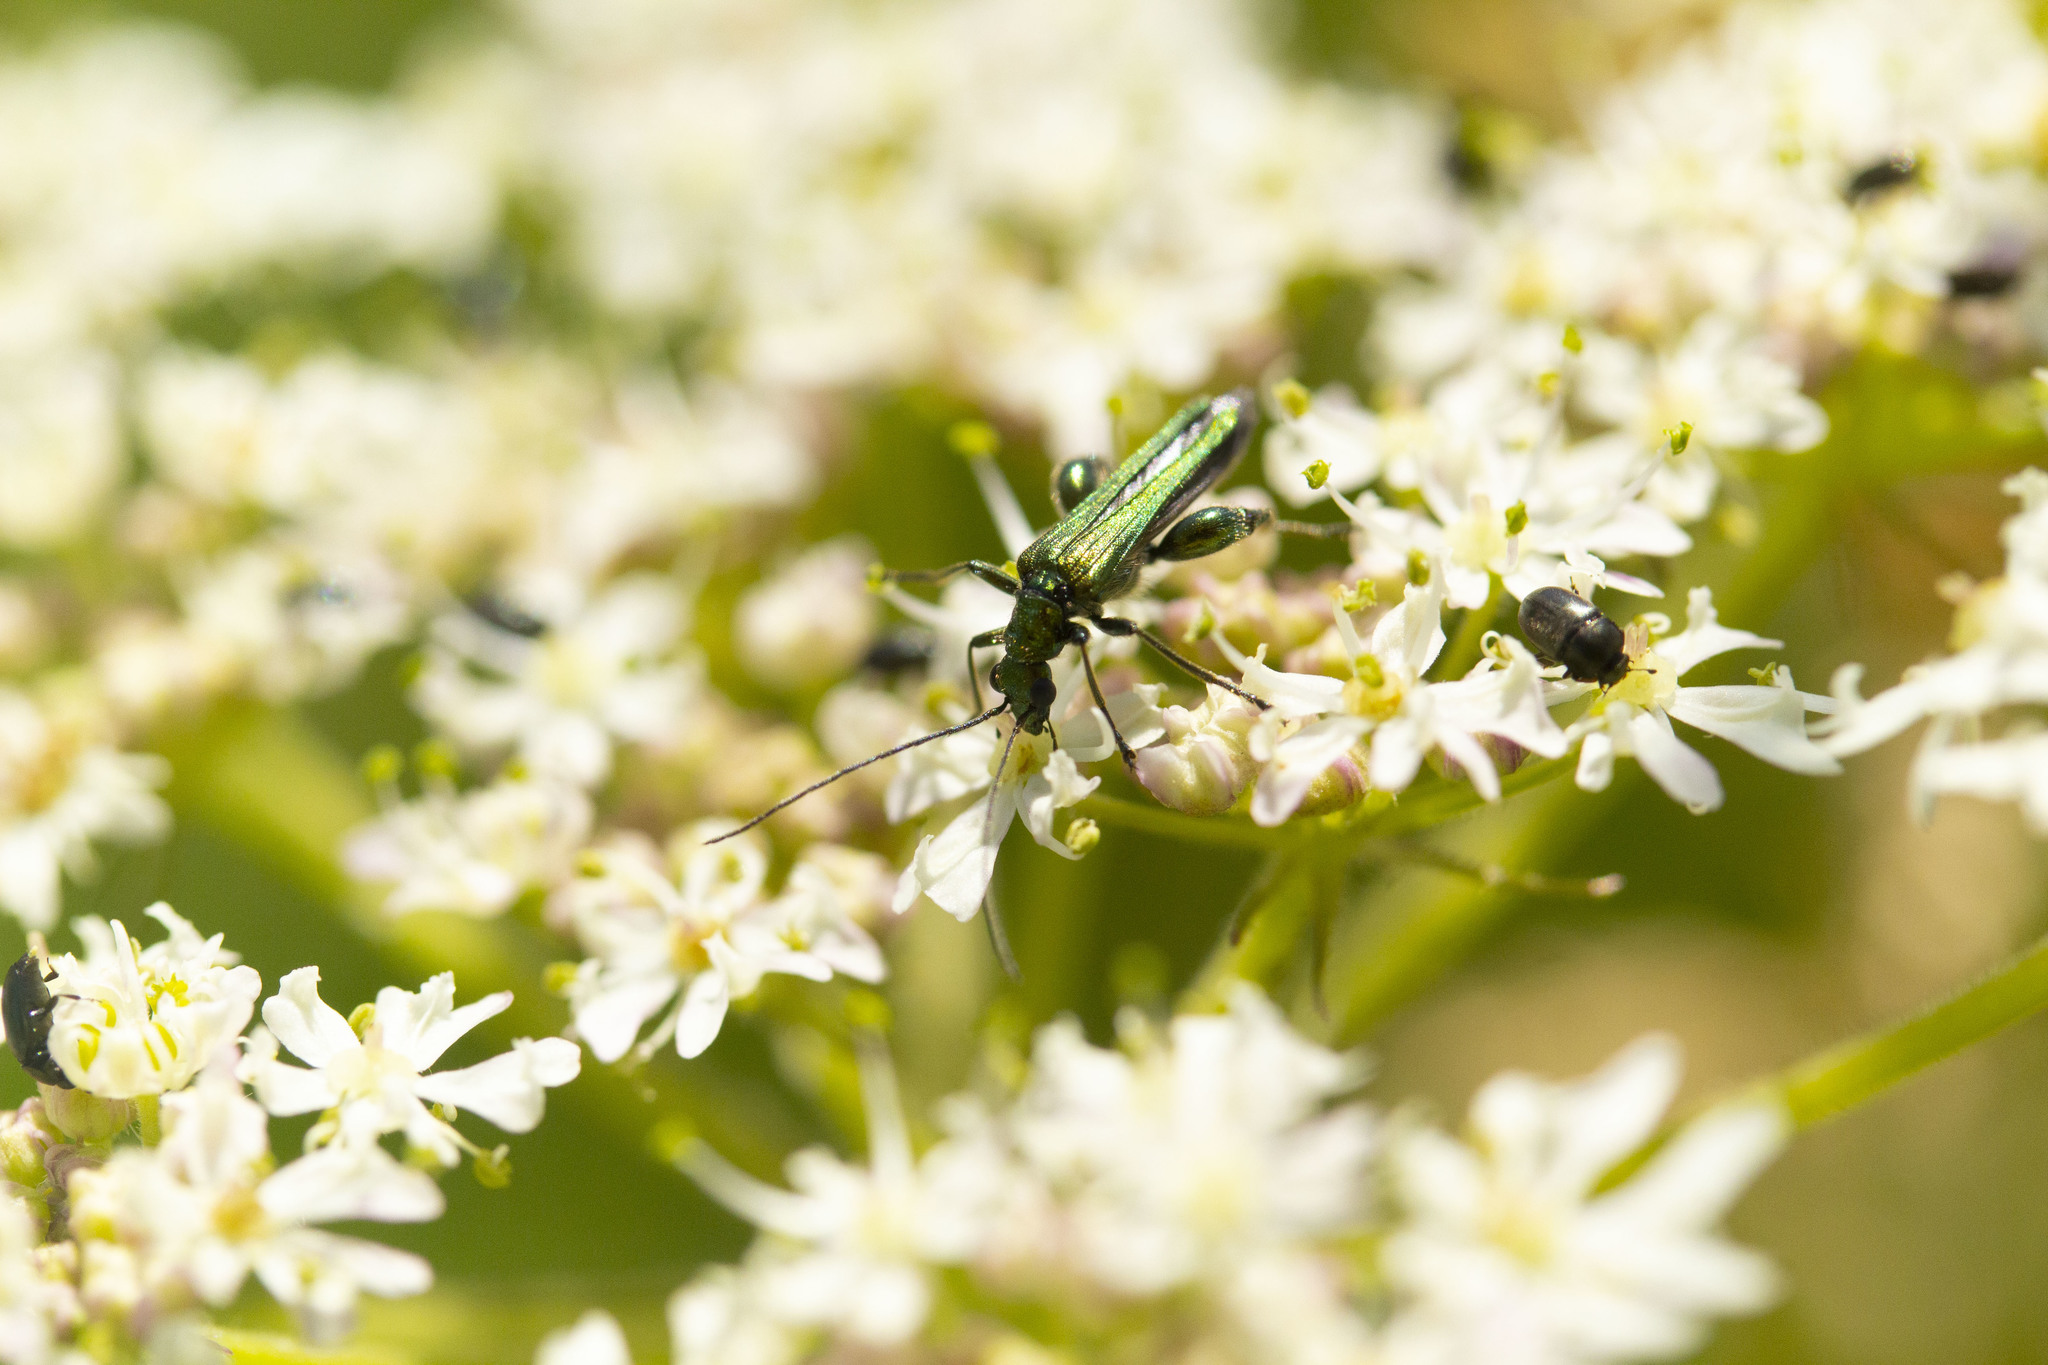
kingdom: Animalia
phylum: Arthropoda
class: Insecta
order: Coleoptera
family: Oedemeridae
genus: Oedemera
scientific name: Oedemera nobilis
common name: Swollen-thighed beetle
